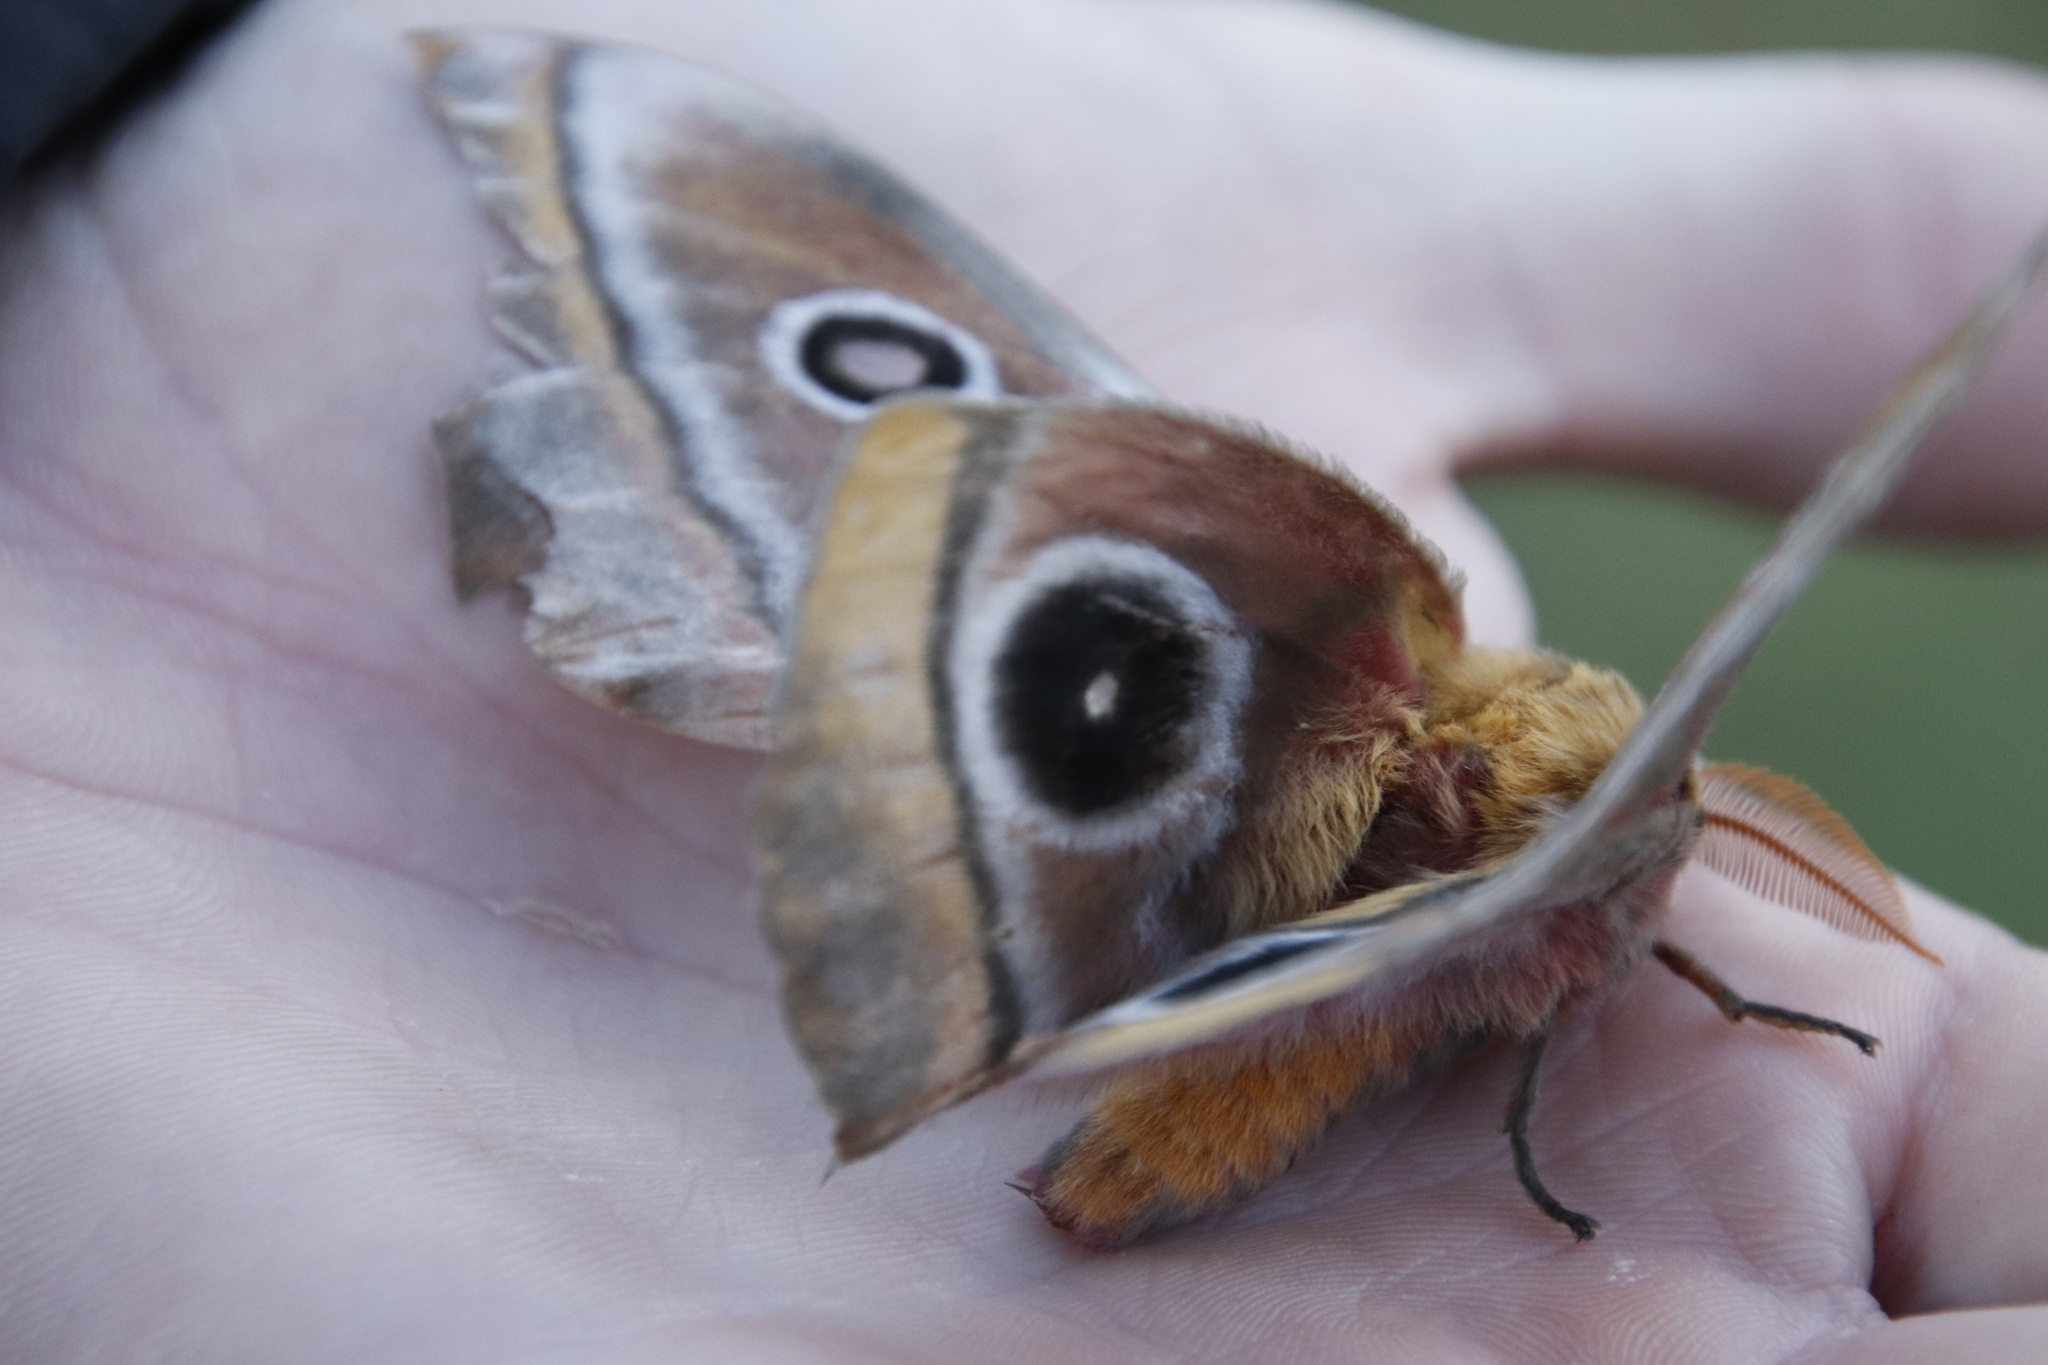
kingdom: Animalia
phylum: Arthropoda
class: Insecta
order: Lepidoptera
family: Saturniidae
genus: Nudaurelia
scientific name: Nudaurelia cytherea
